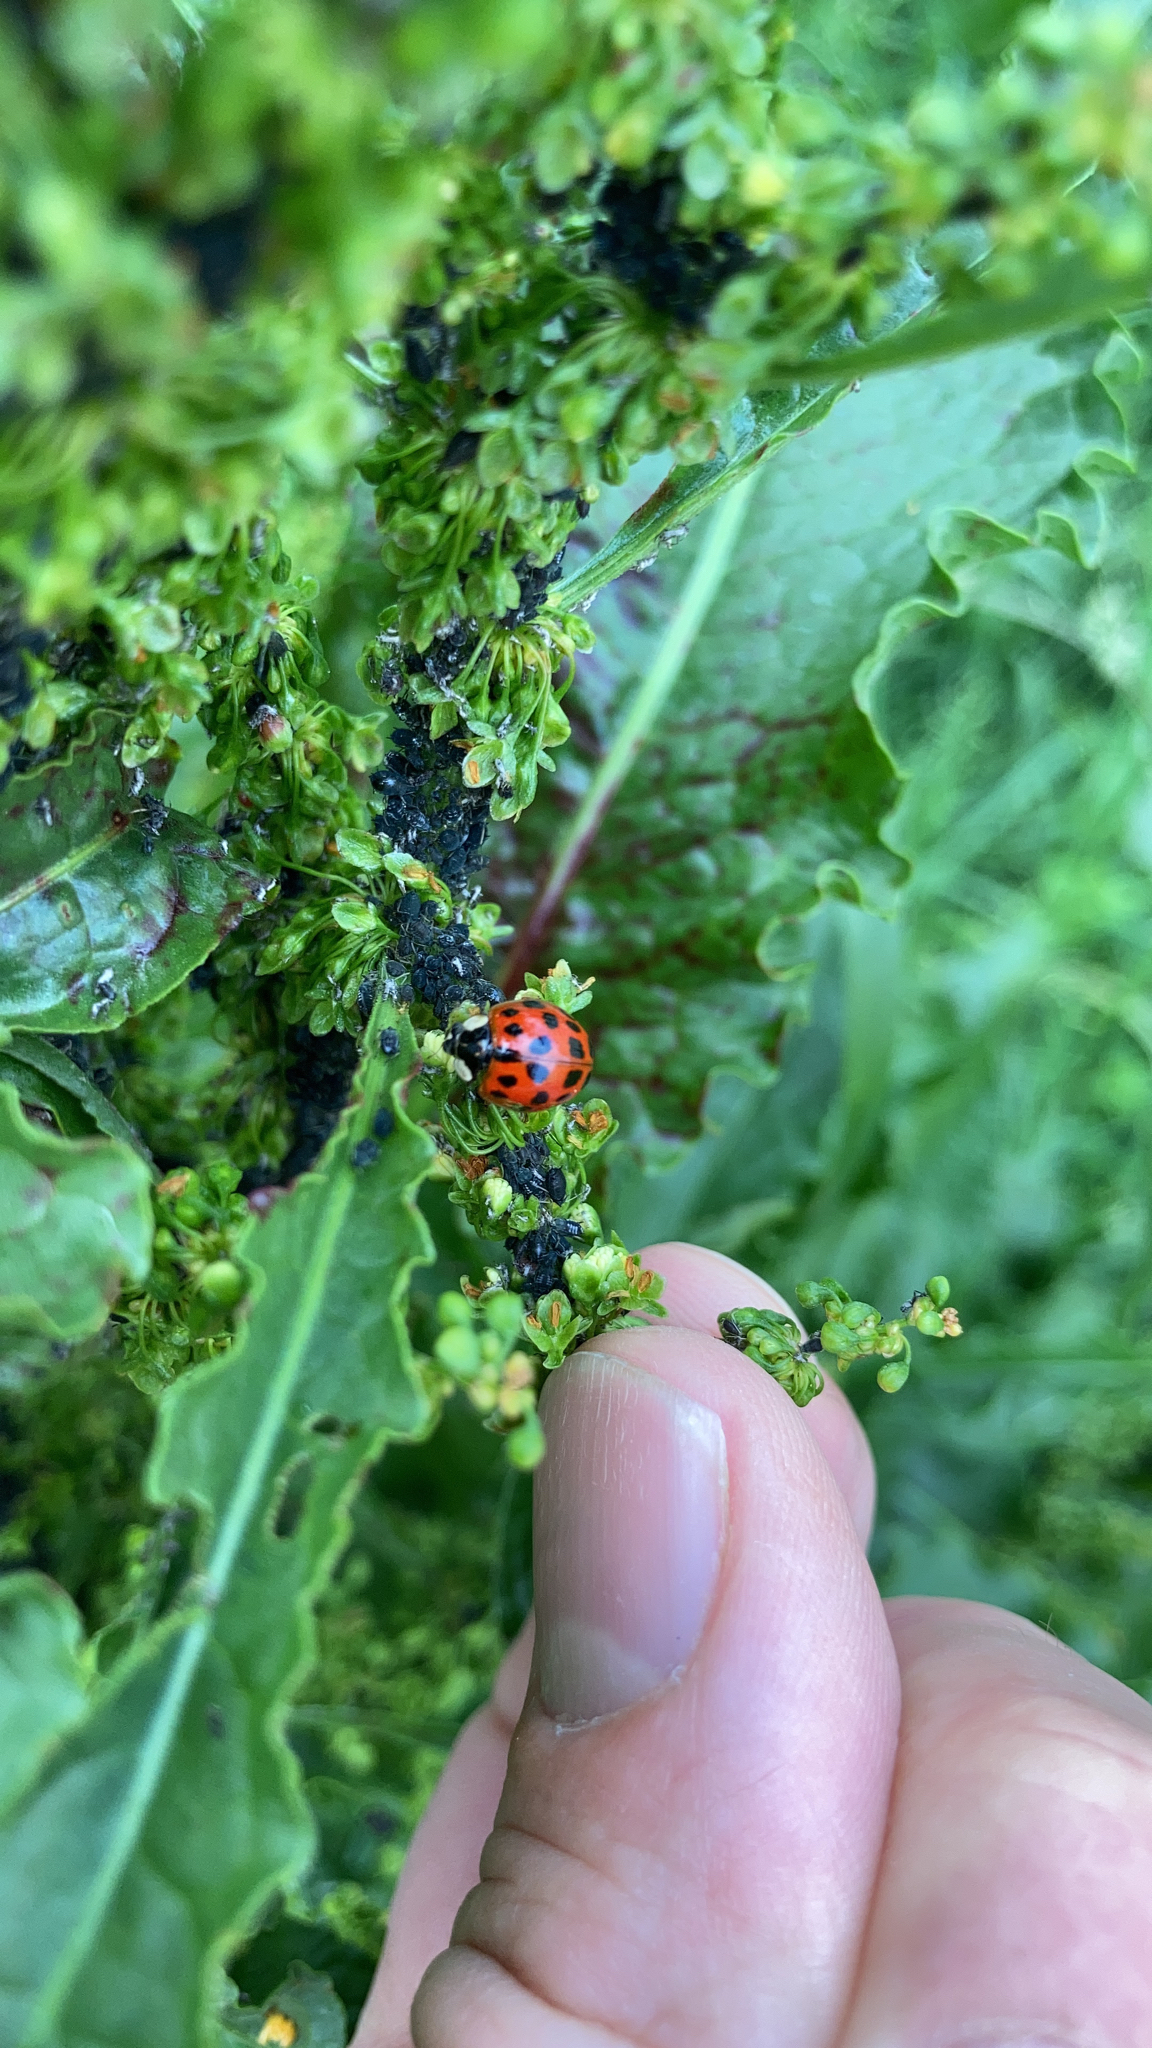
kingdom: Animalia
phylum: Arthropoda
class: Insecta
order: Coleoptera
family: Coccinellidae
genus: Harmonia
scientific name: Harmonia axyridis
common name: Harlequin ladybird
